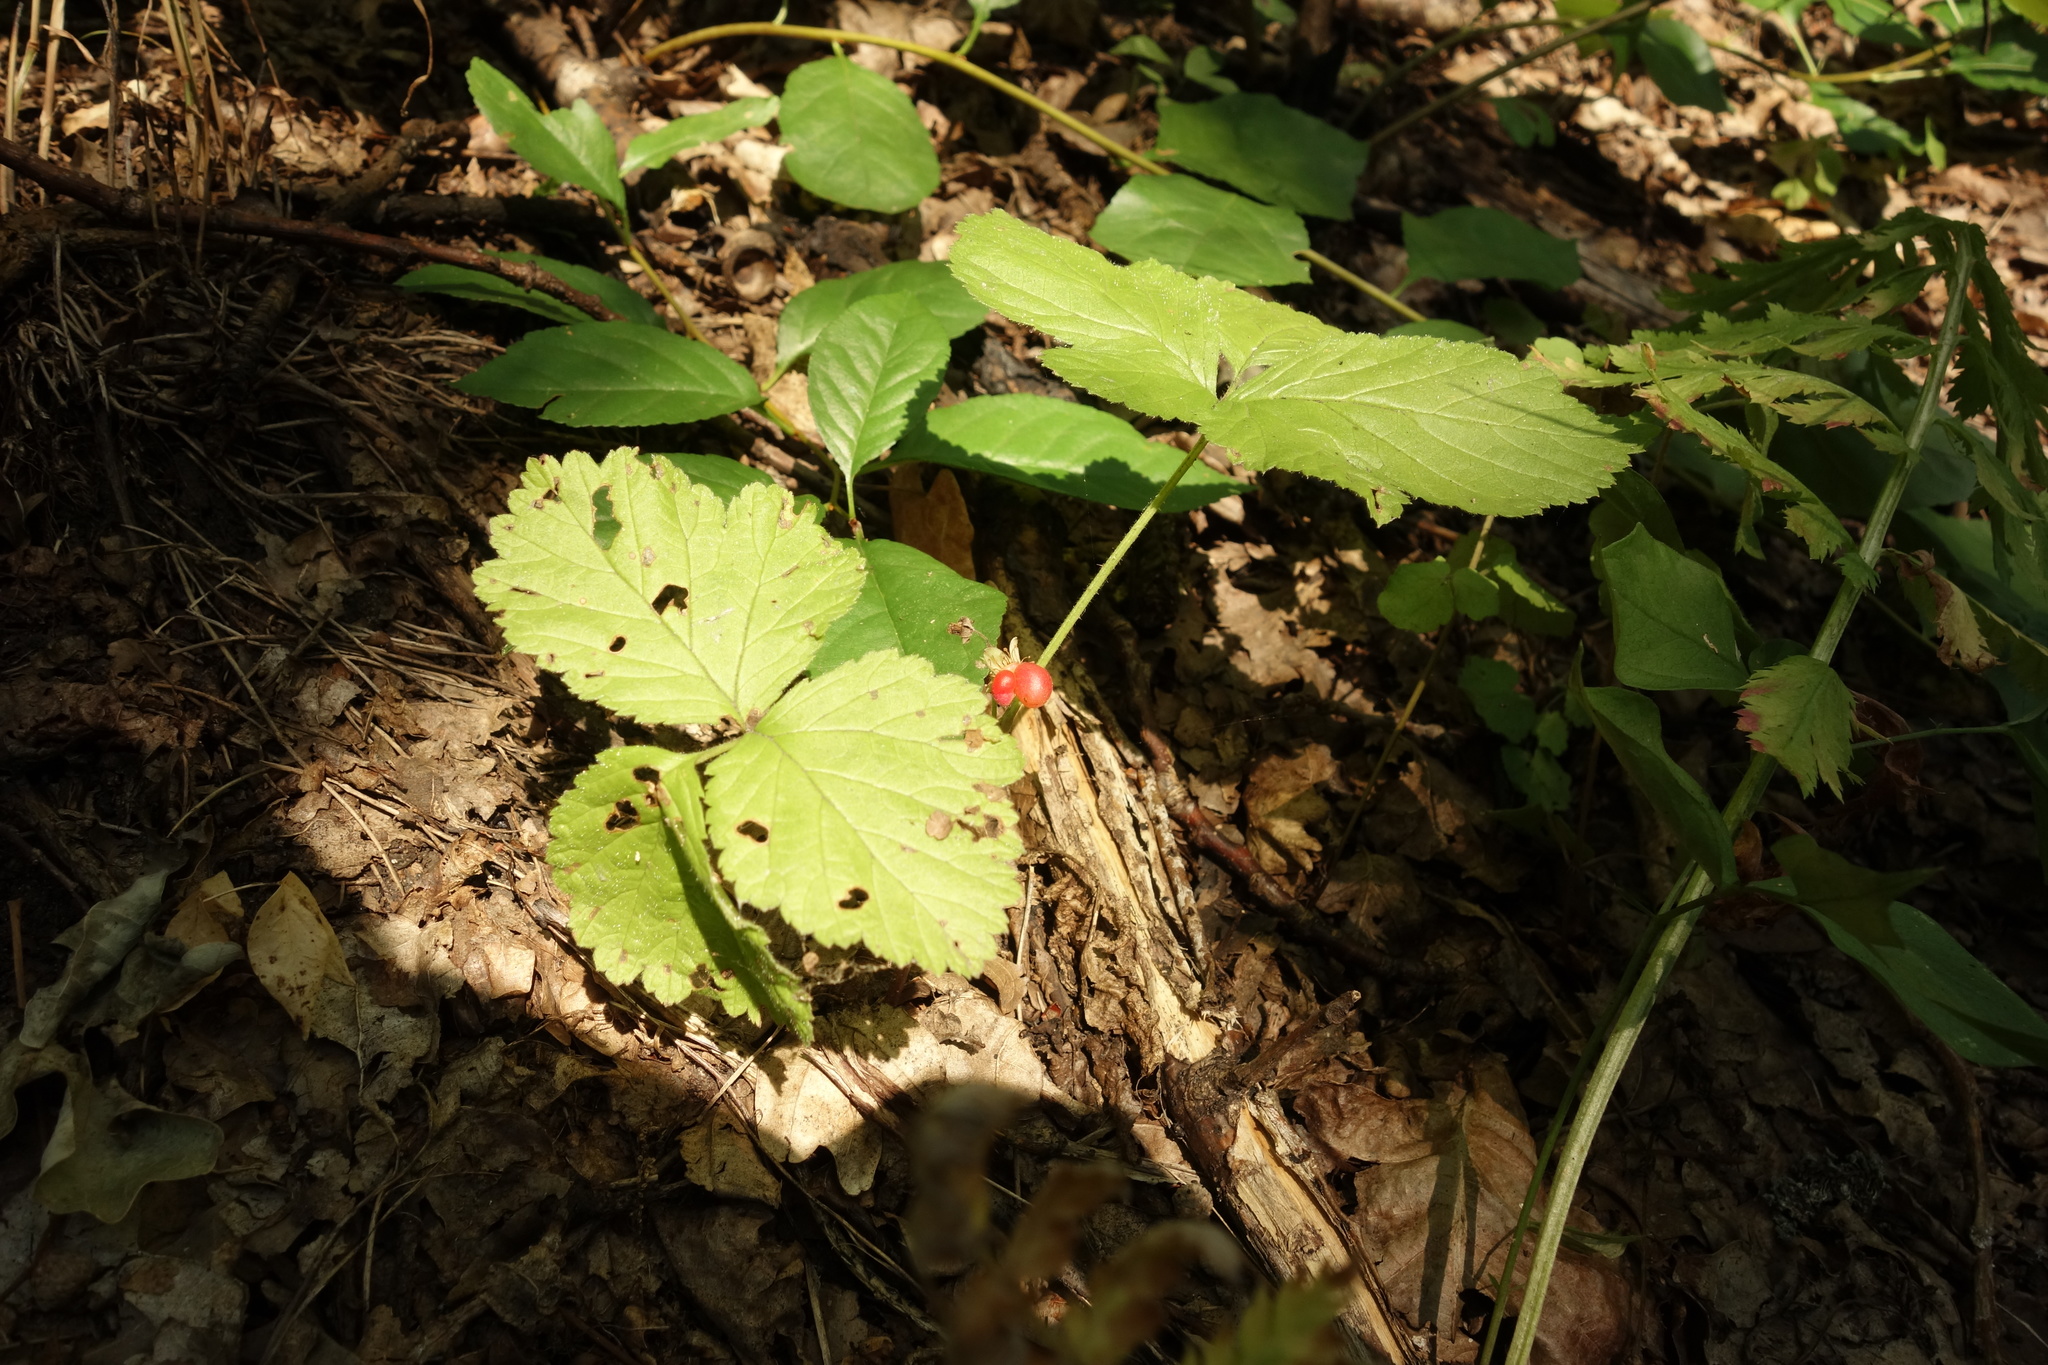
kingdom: Plantae
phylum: Tracheophyta
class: Magnoliopsida
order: Rosales
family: Rosaceae
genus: Rubus
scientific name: Rubus saxatilis
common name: Stone bramble
